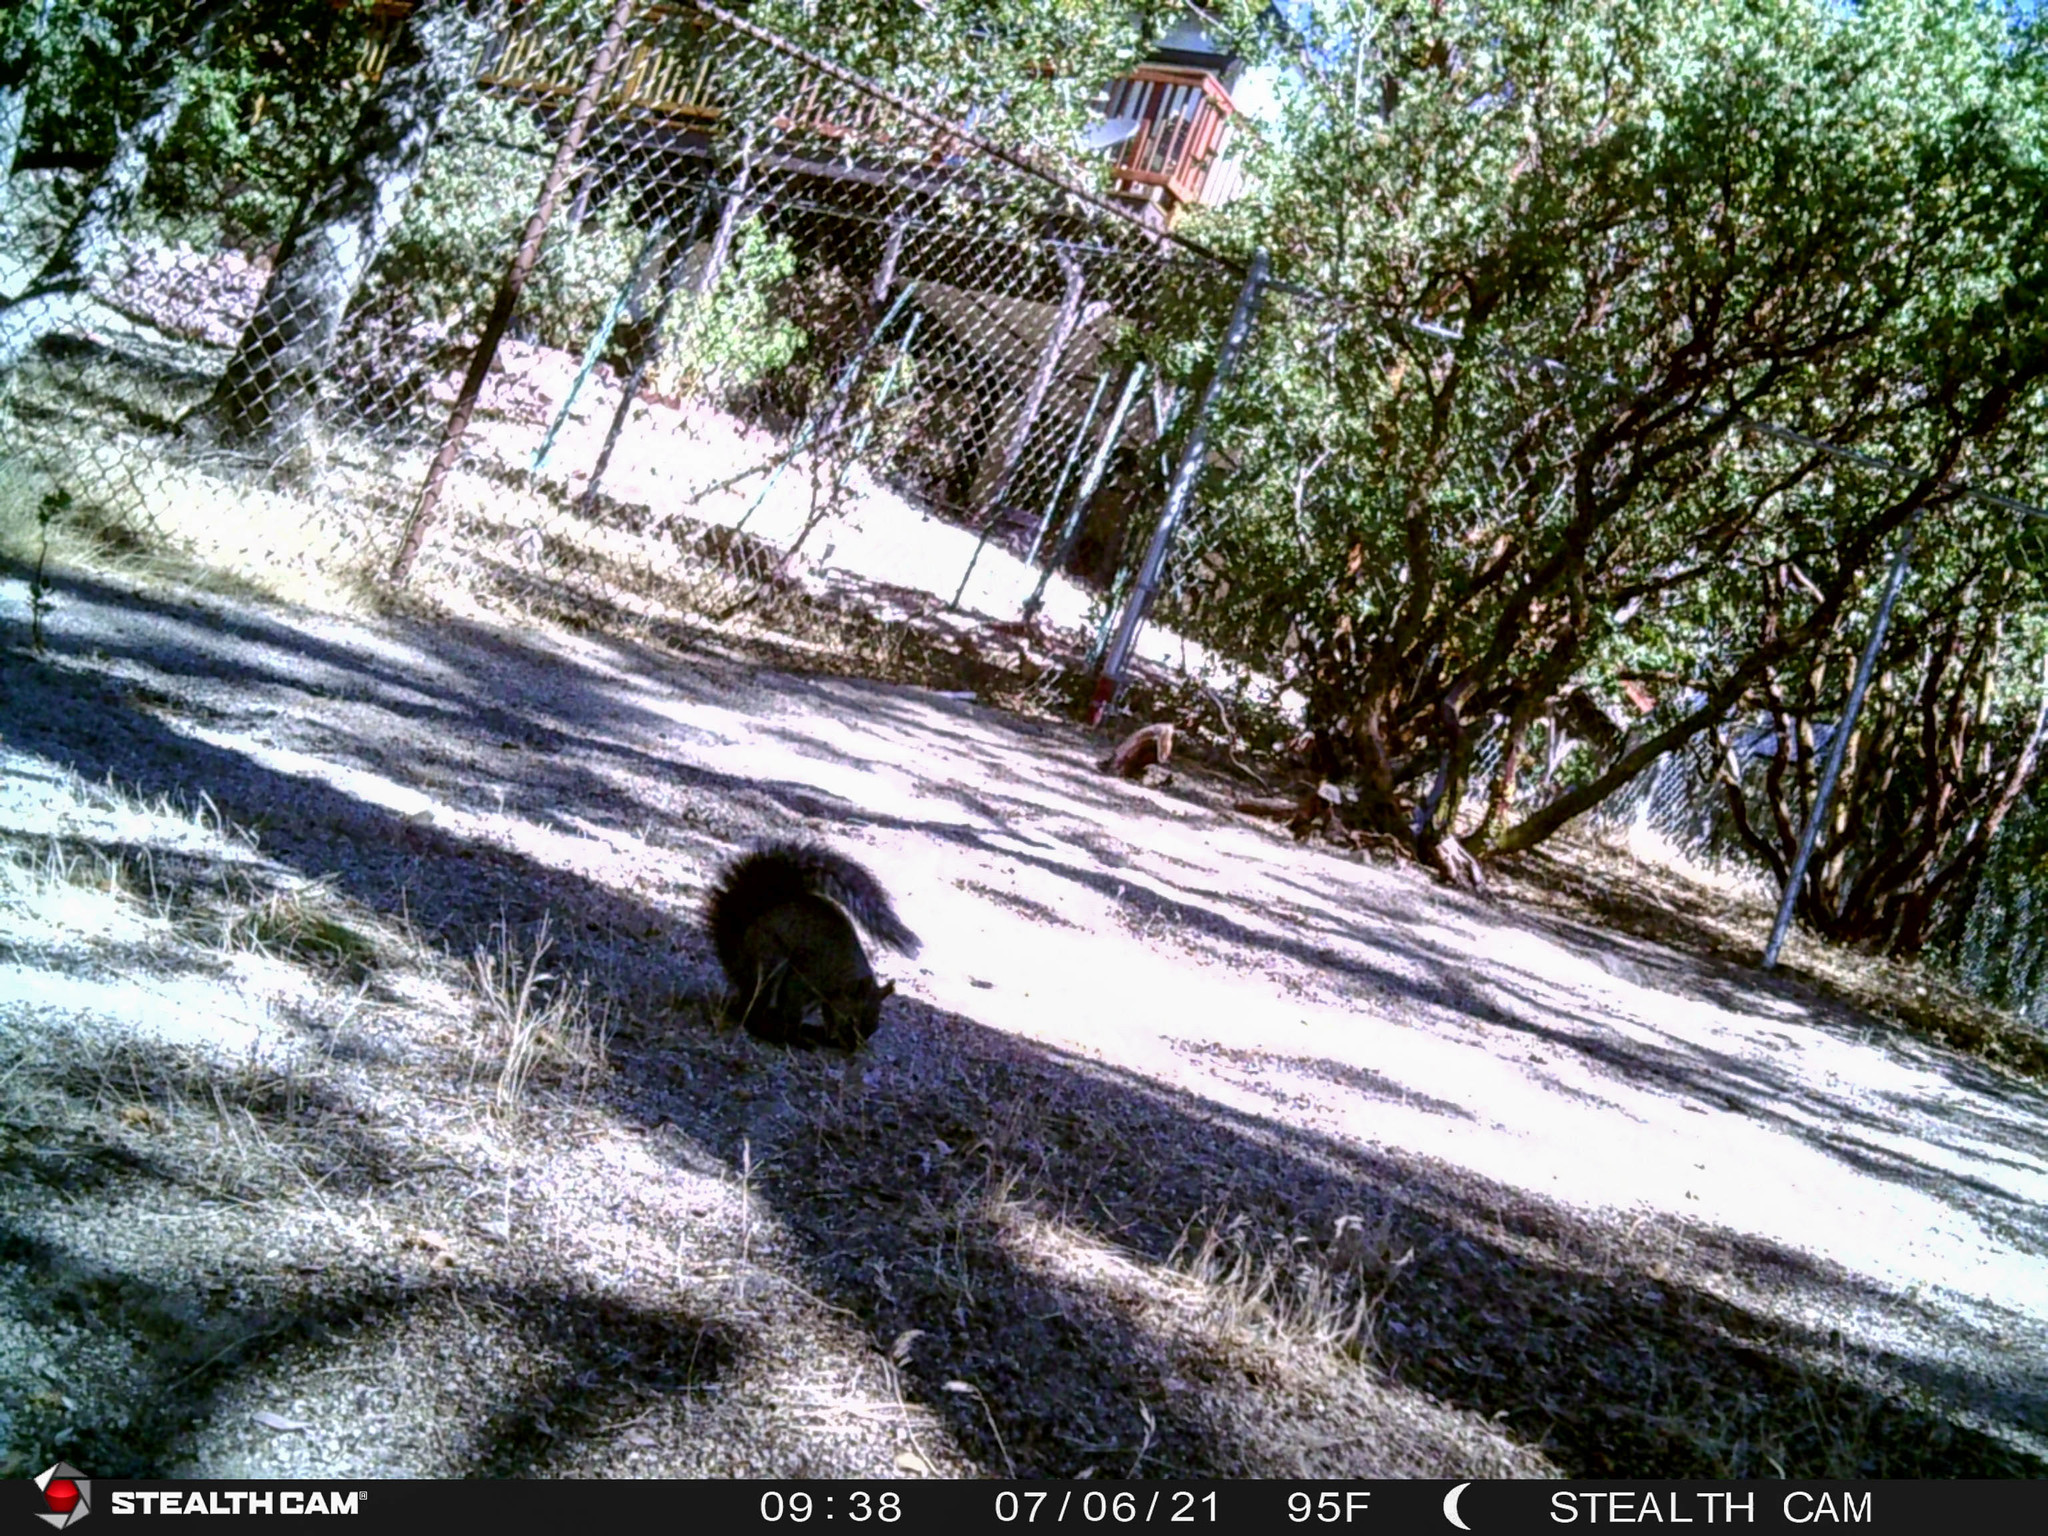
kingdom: Animalia
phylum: Chordata
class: Mammalia
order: Rodentia
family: Sciuridae
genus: Sciurus
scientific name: Sciurus griseus
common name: Western gray squirrel
